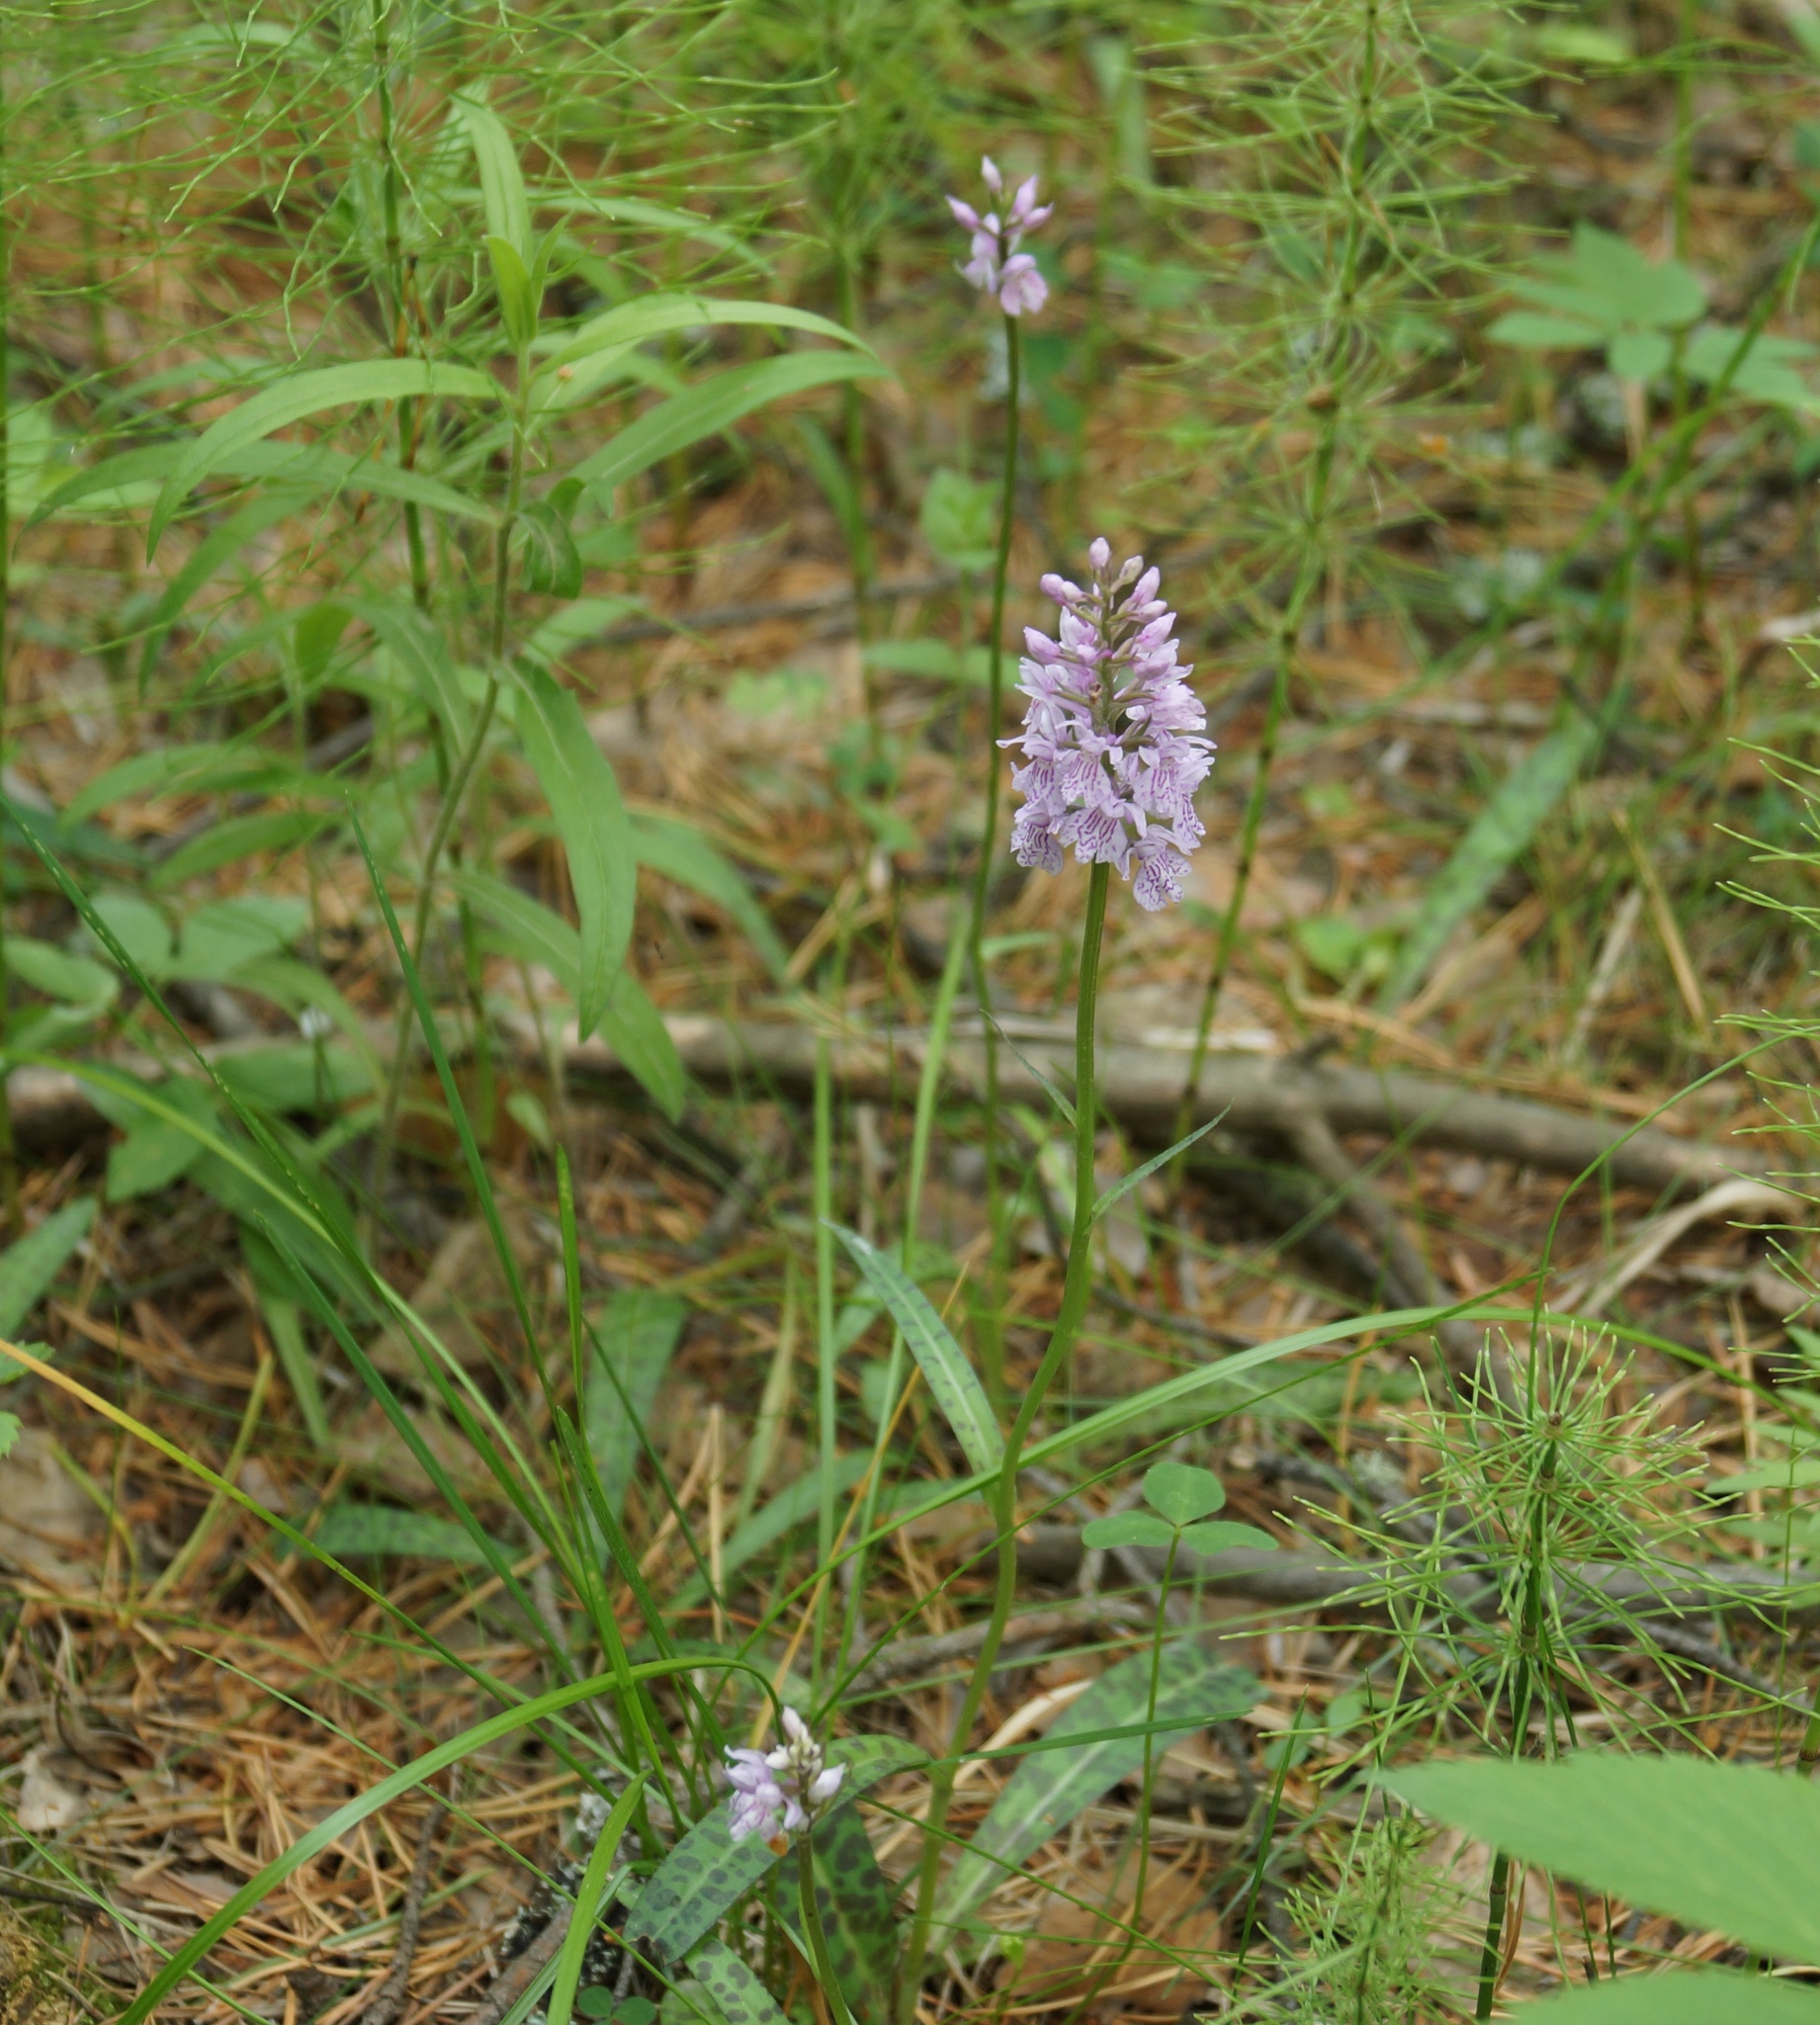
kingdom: Plantae
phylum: Tracheophyta
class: Liliopsida
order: Asparagales
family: Orchidaceae
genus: Dactylorhiza
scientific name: Dactylorhiza maculata
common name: Heath spotted-orchid
